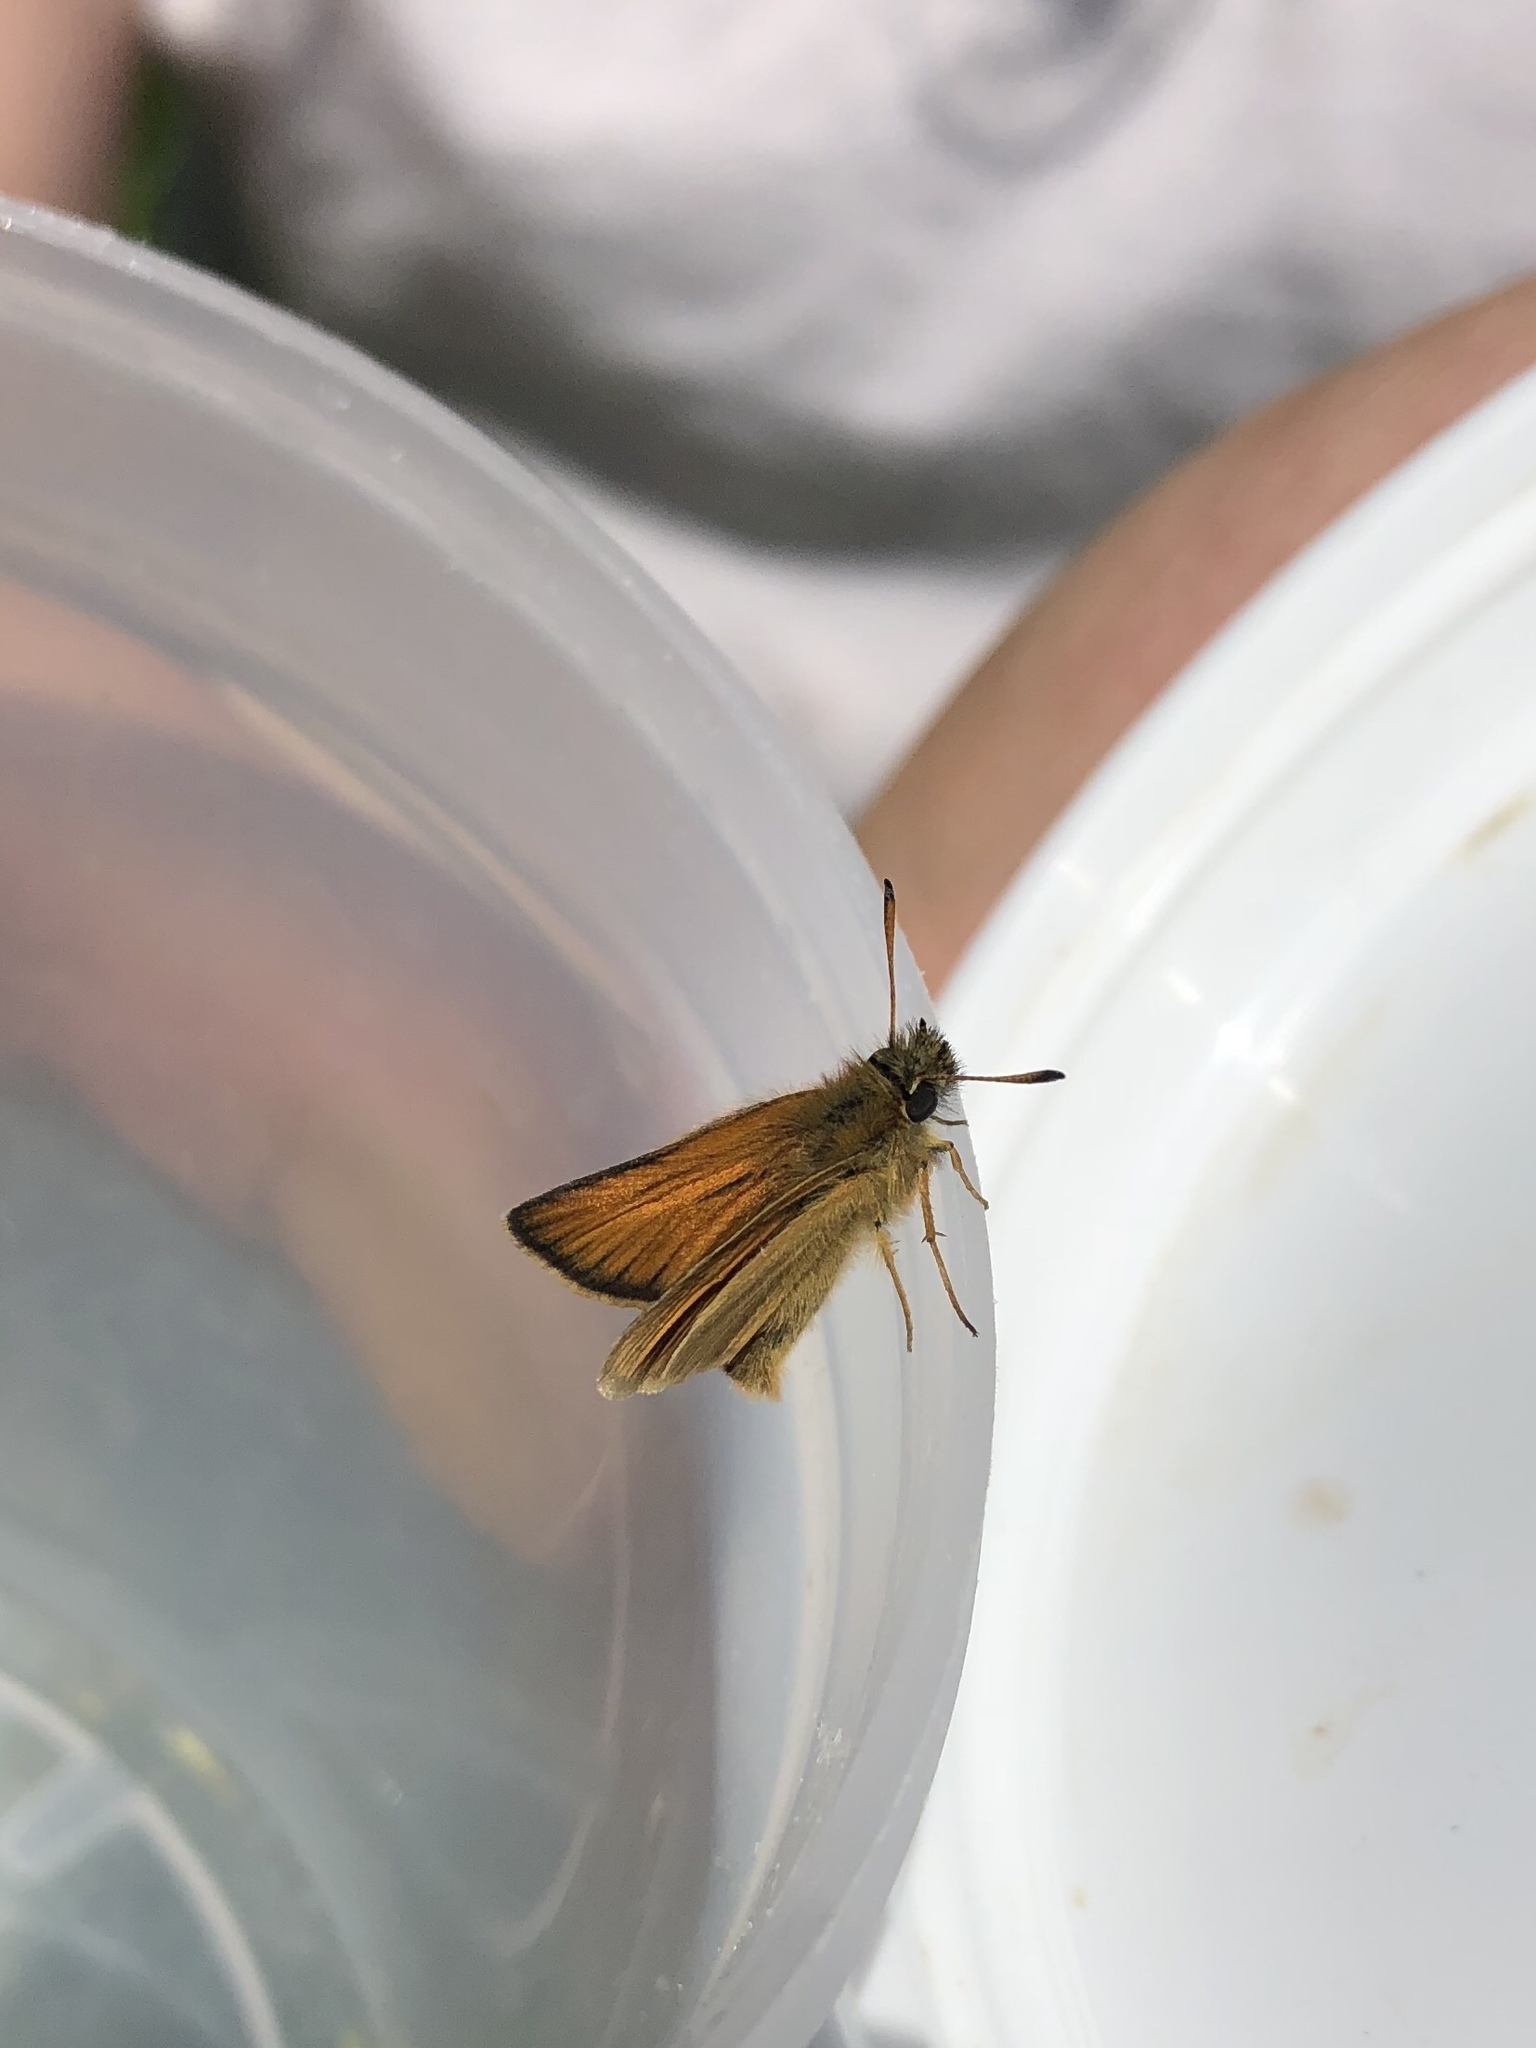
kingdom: Animalia
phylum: Arthropoda
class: Insecta
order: Lepidoptera
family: Hesperiidae
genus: Thymelicus
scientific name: Thymelicus lineola
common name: Essex skipper
